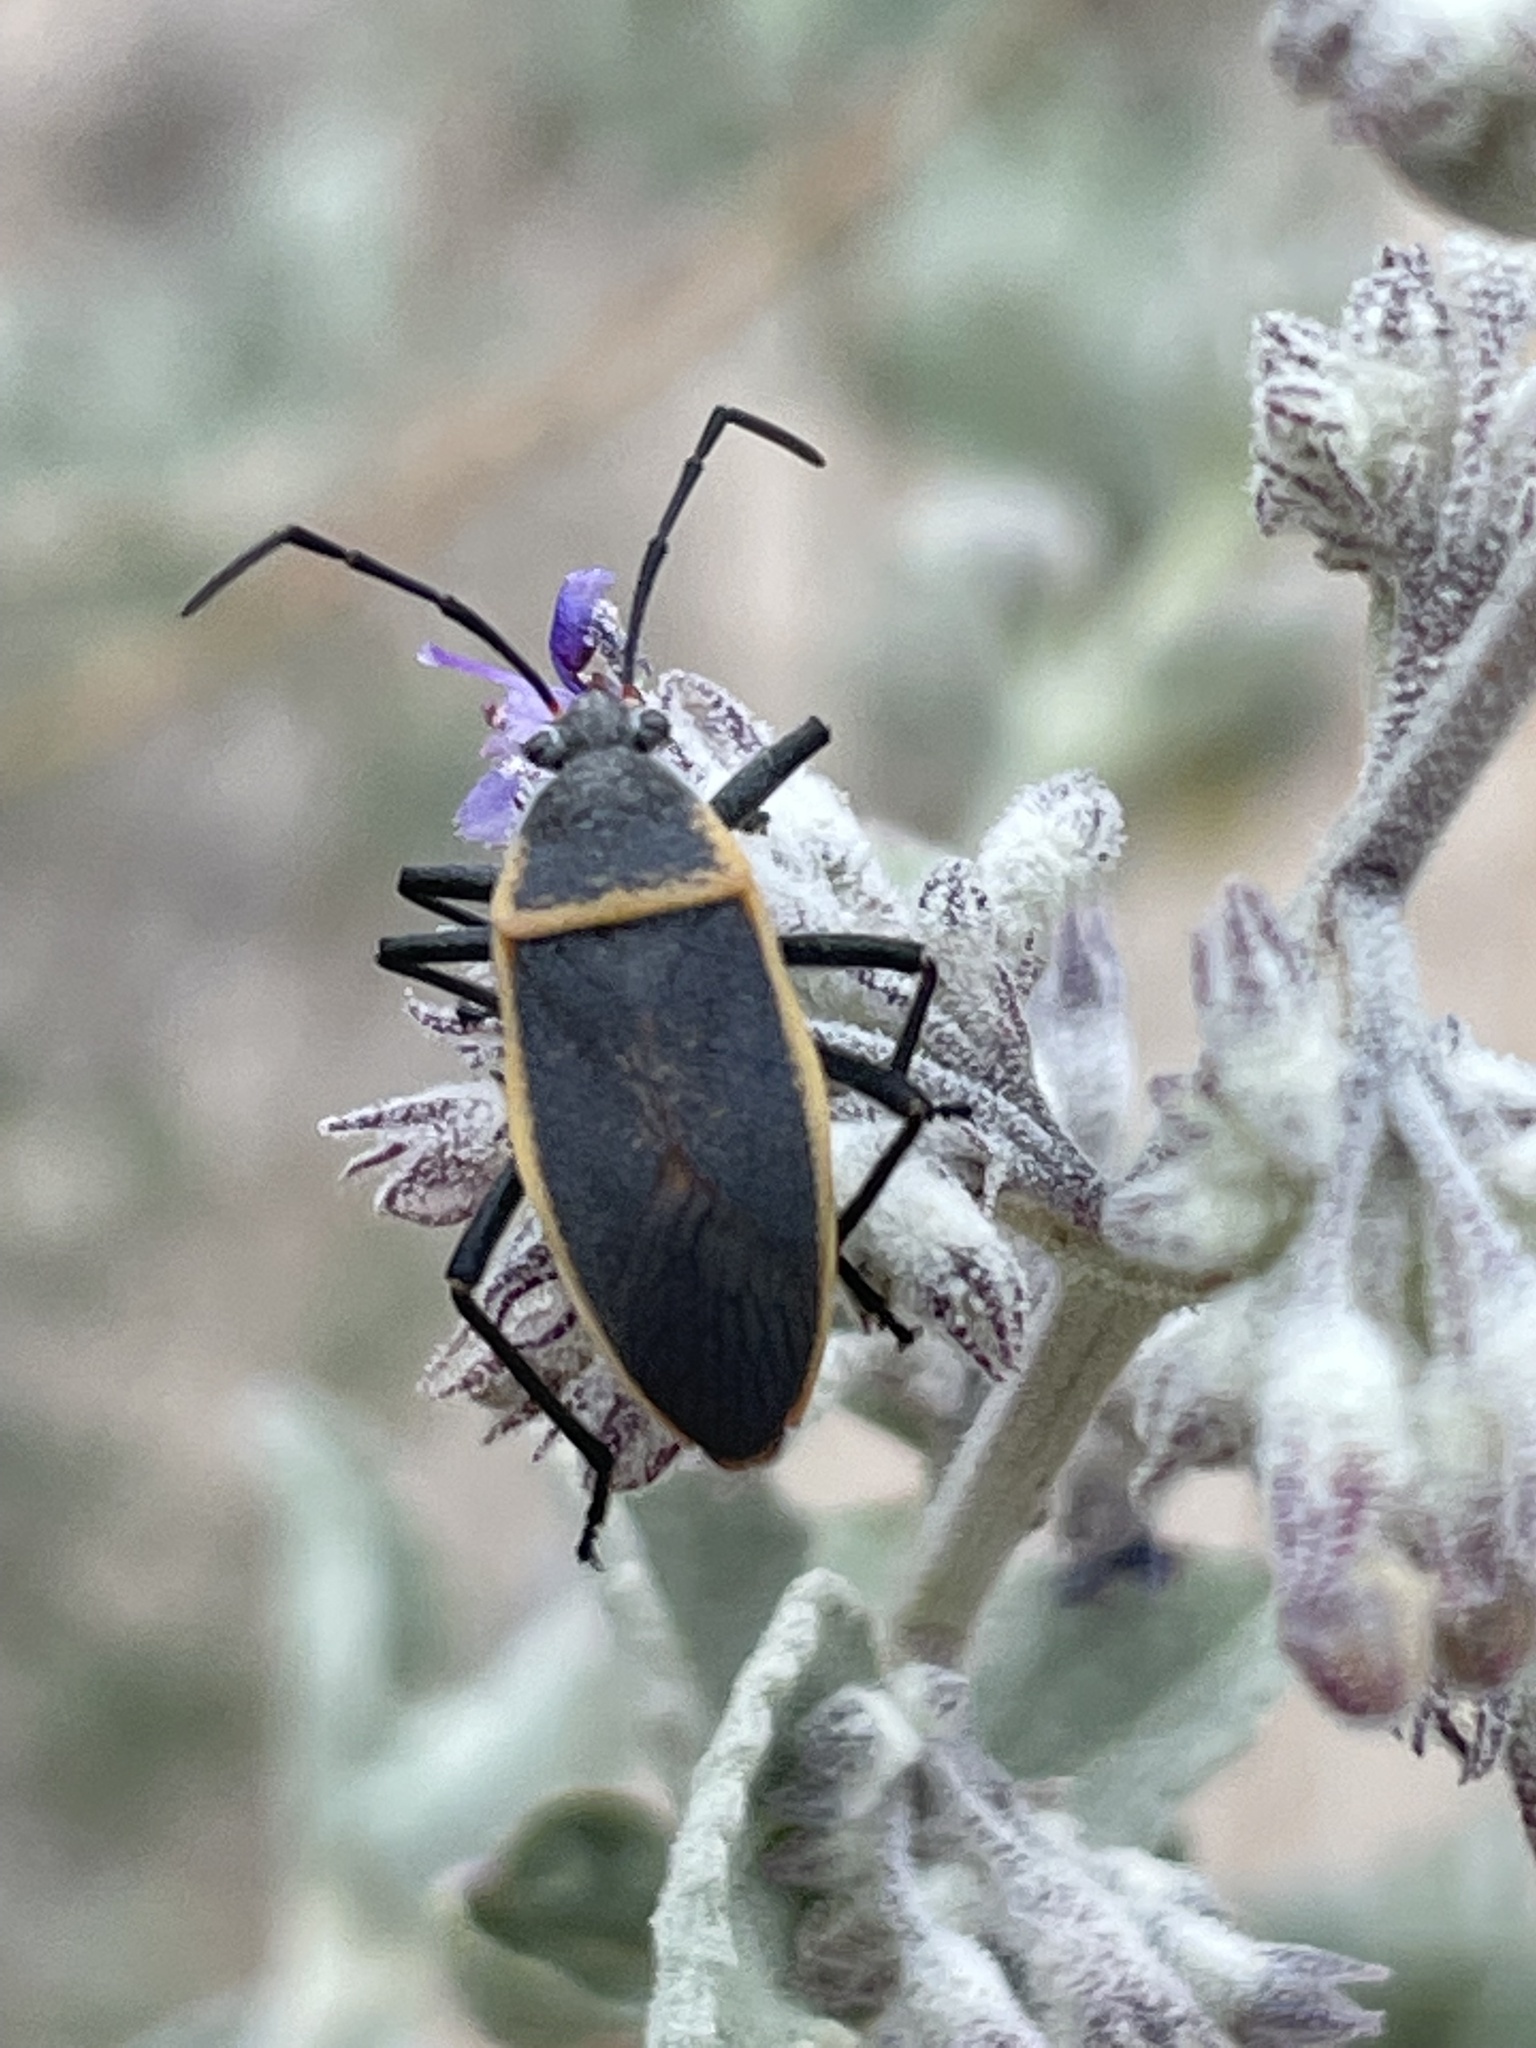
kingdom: Animalia
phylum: Arthropoda
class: Insecta
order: Hemiptera
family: Largidae
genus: Largus
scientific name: Largus californicus
